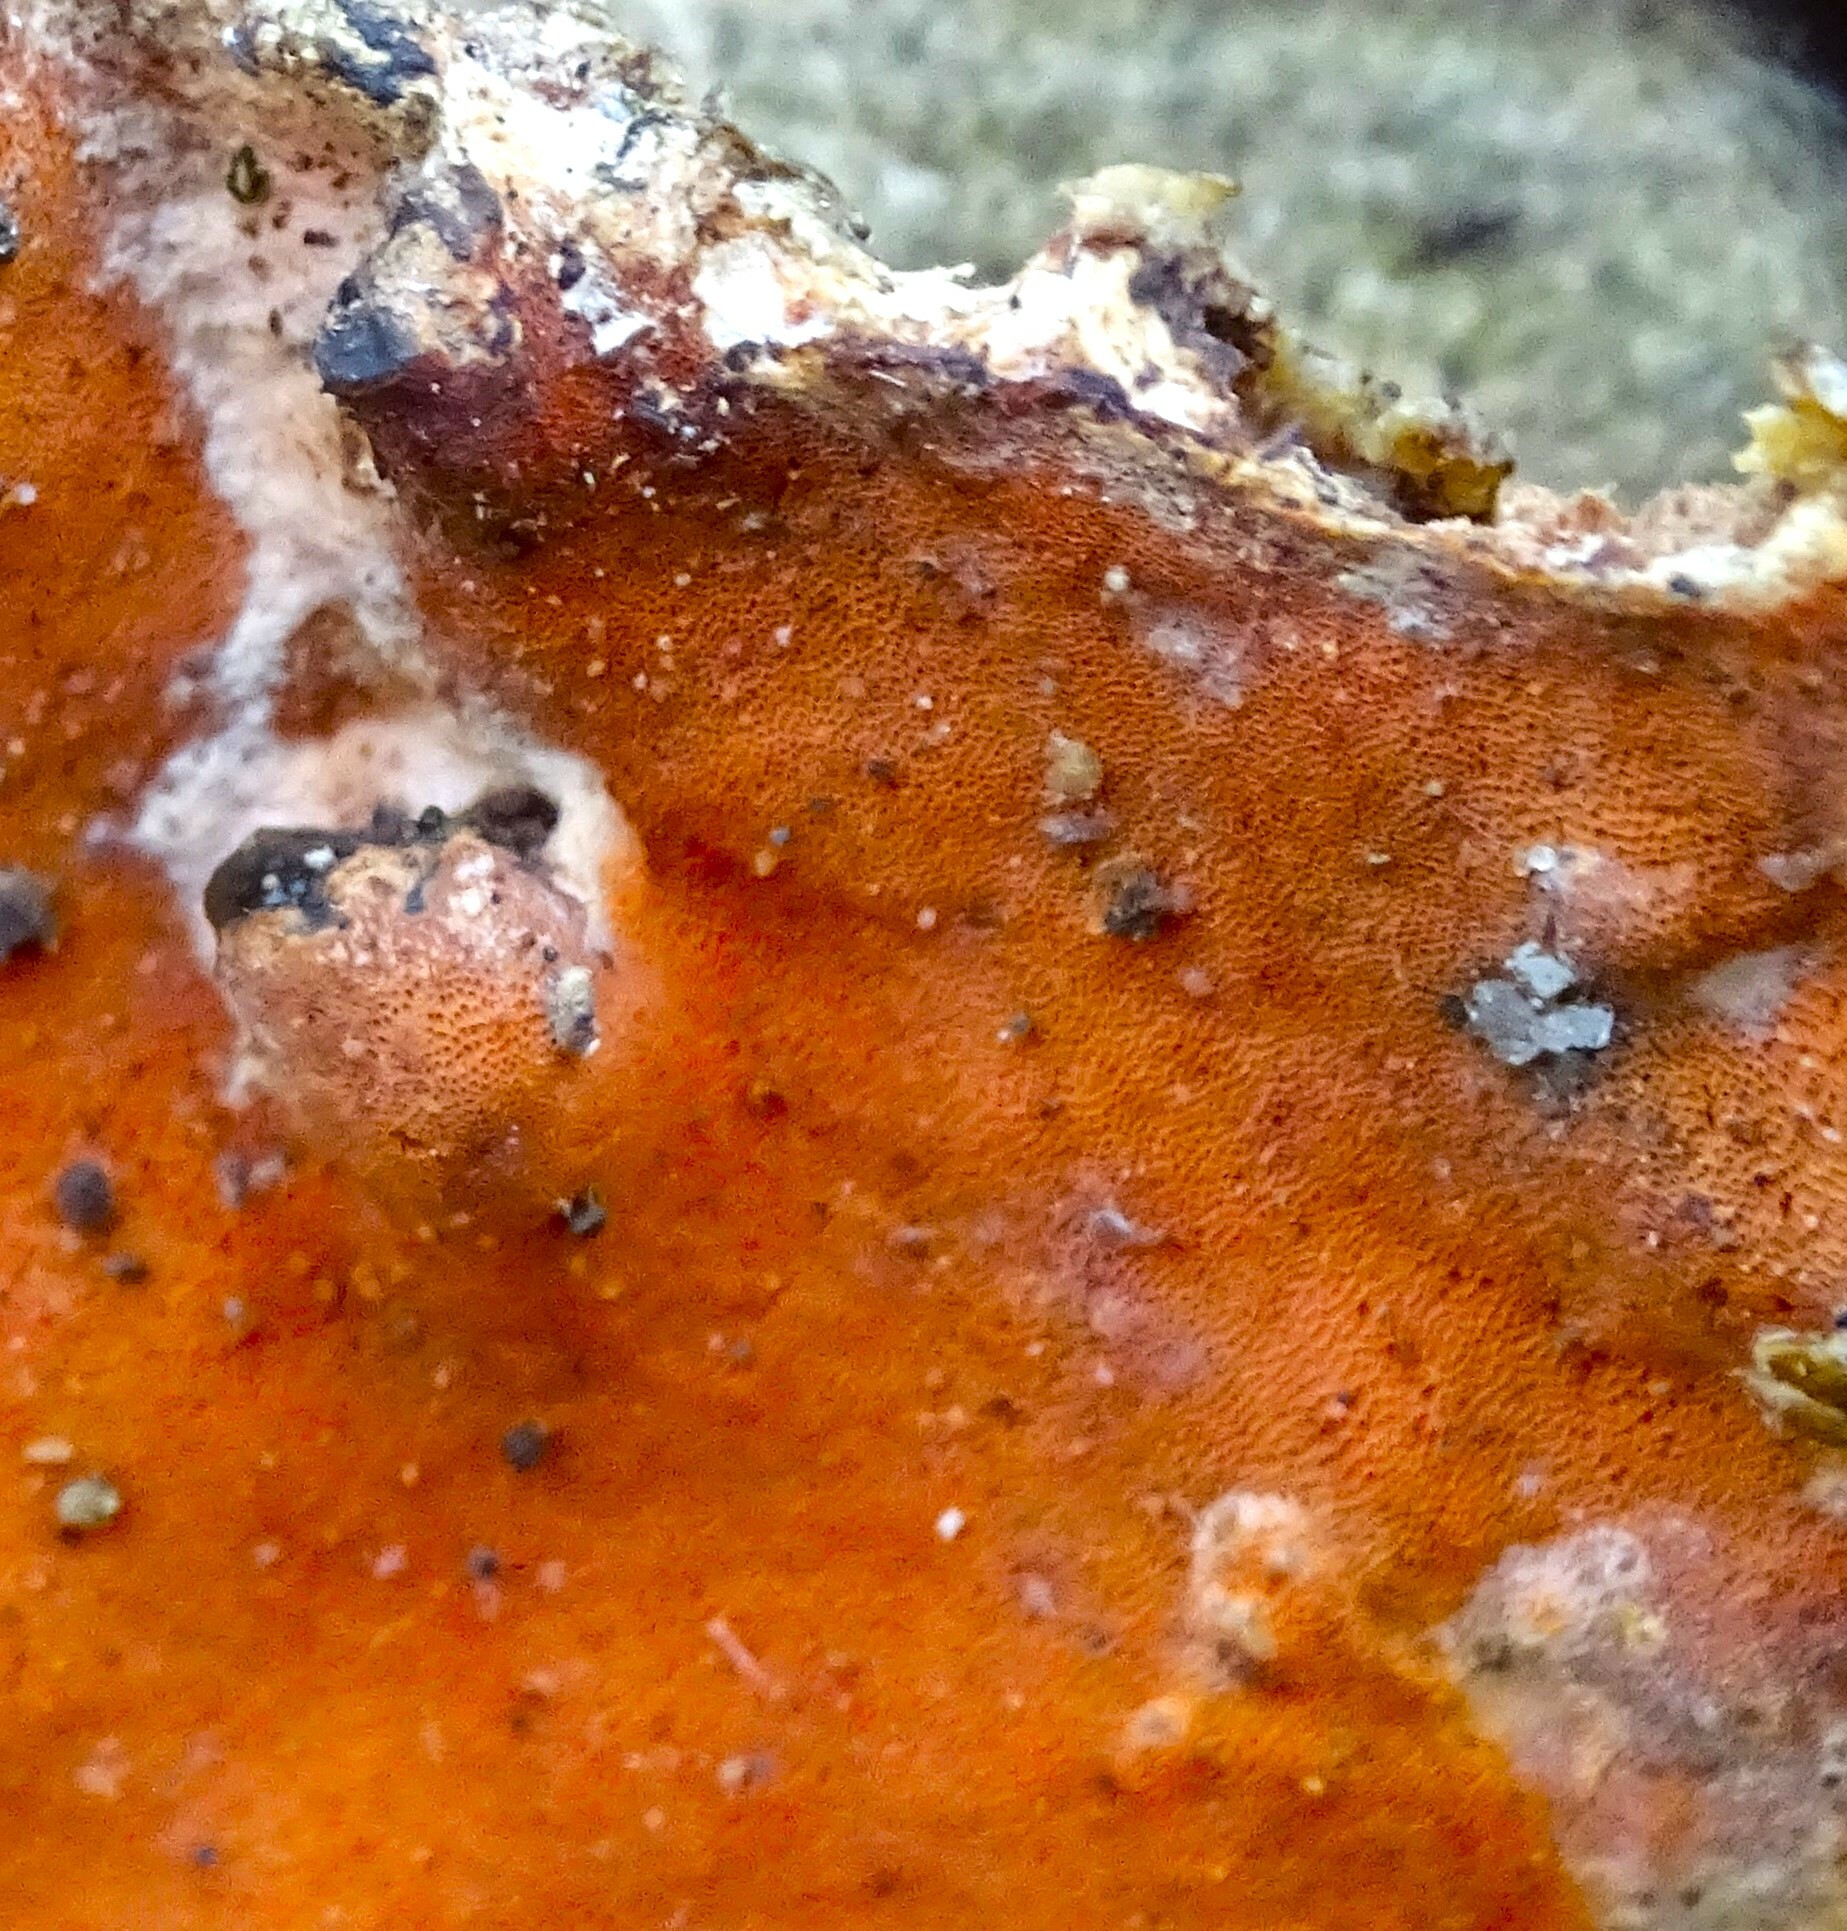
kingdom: Fungi
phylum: Basidiomycota
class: Agaricomycetes
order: Polyporales
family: Irpicaceae
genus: Ceriporia
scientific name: Ceriporia spissa
